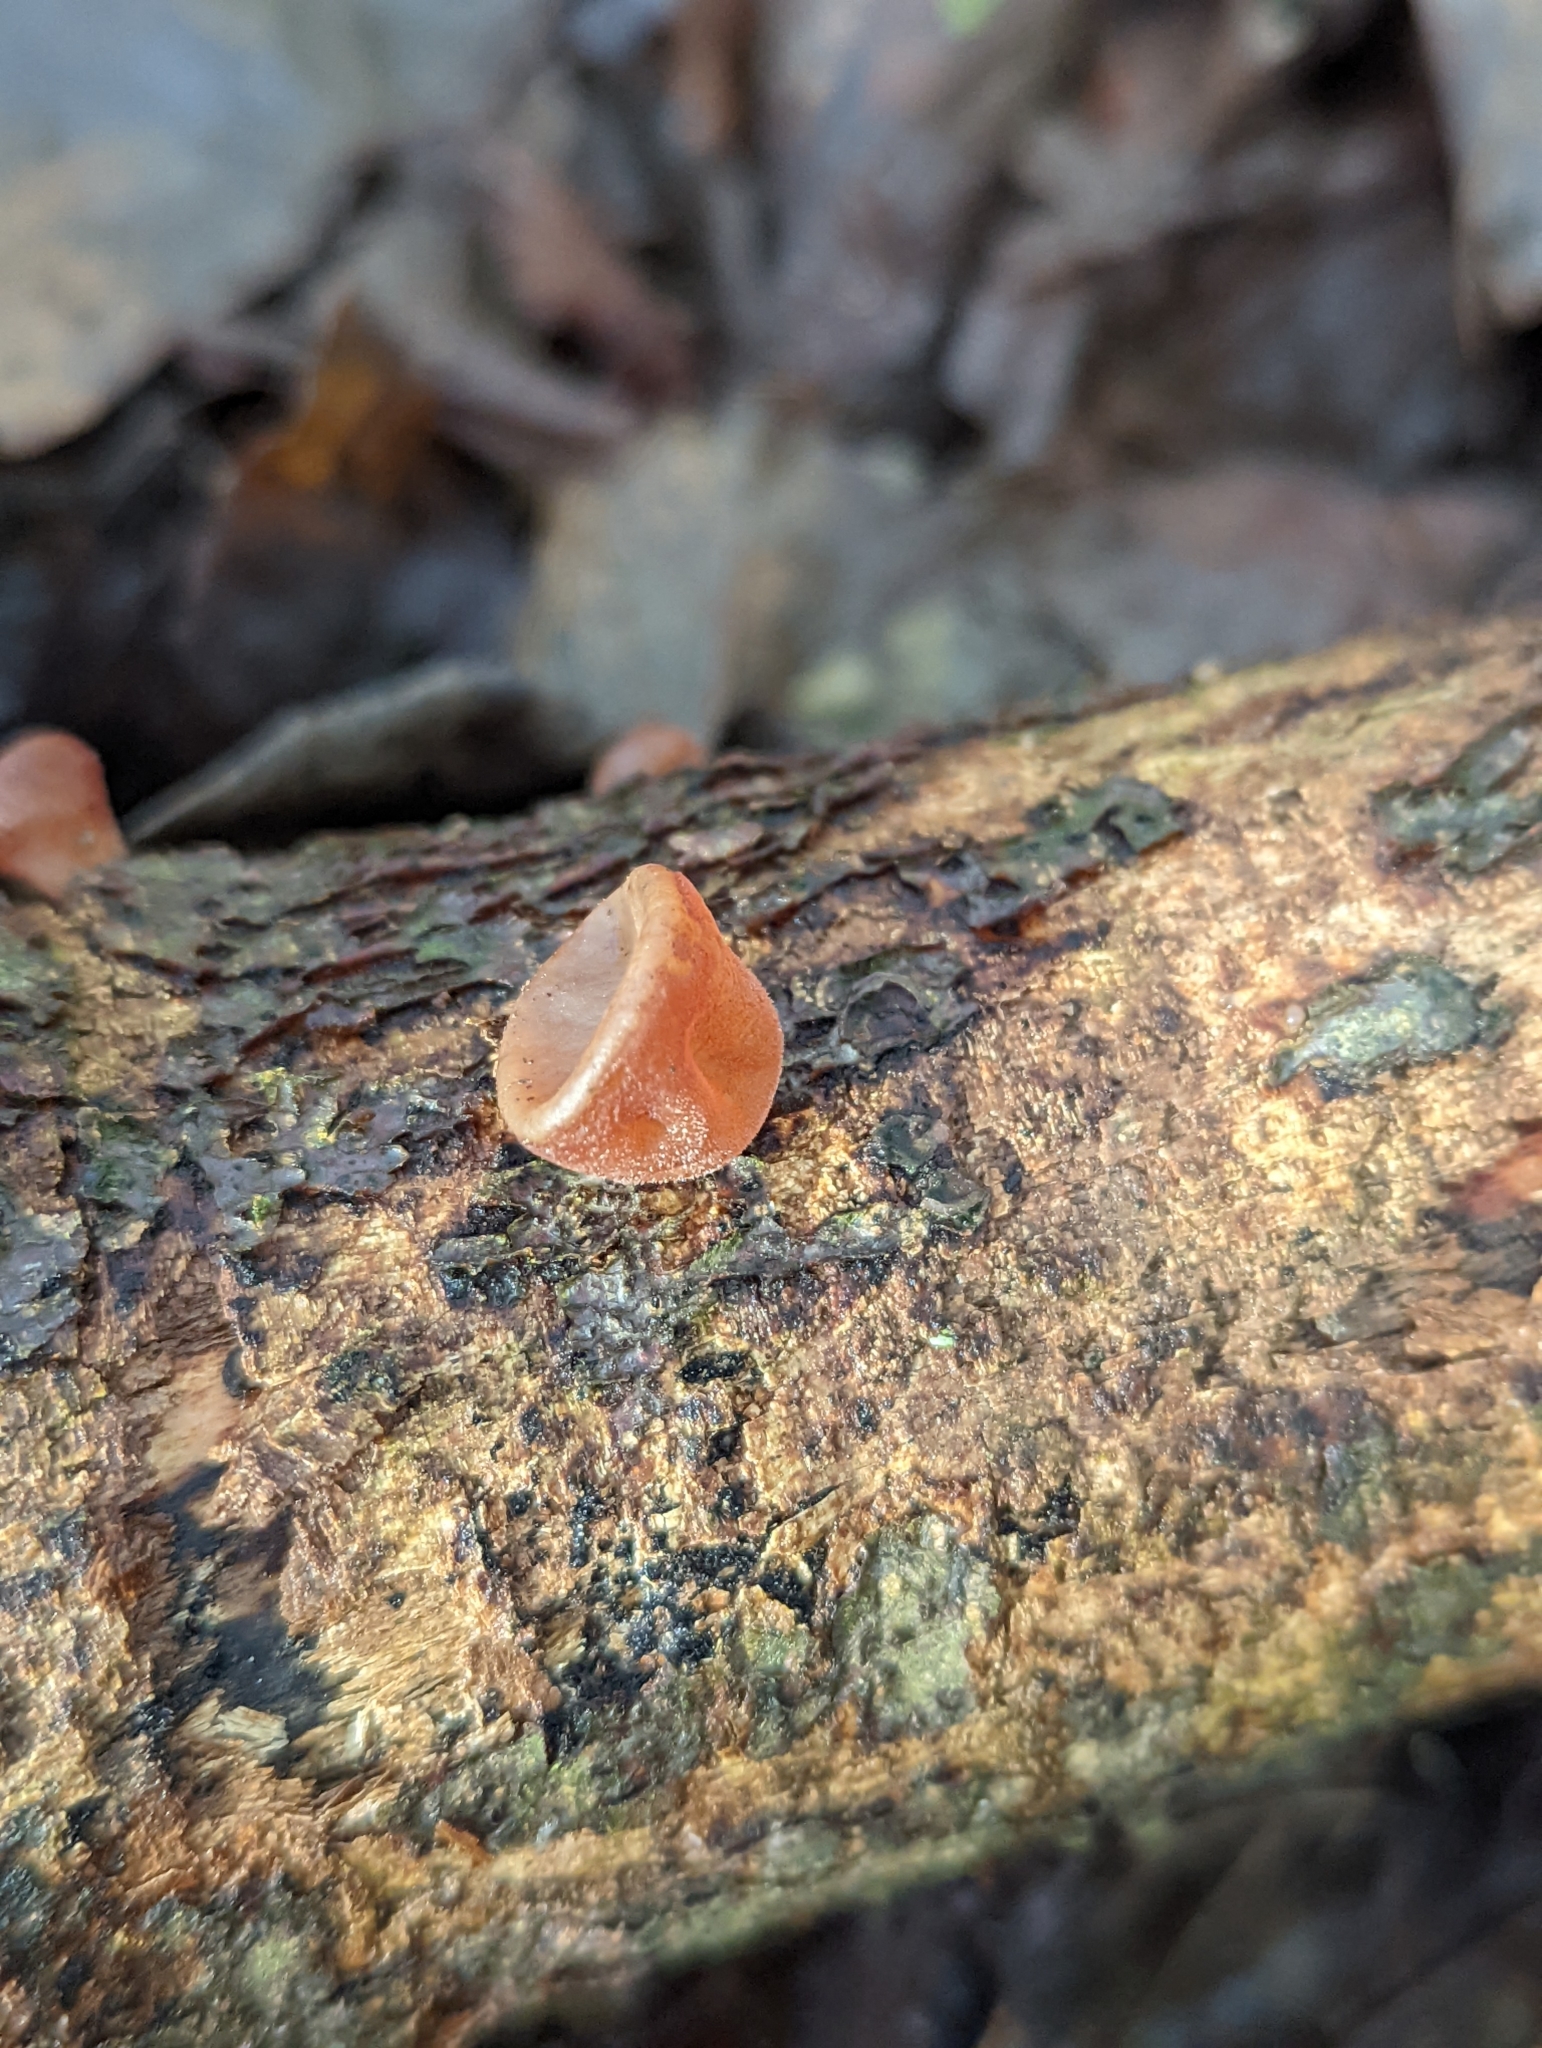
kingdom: Fungi
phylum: Basidiomycota
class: Agaricomycetes
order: Auriculariales
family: Auriculariaceae
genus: Auricularia
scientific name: Auricularia auricula-judae
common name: Jelly ear
